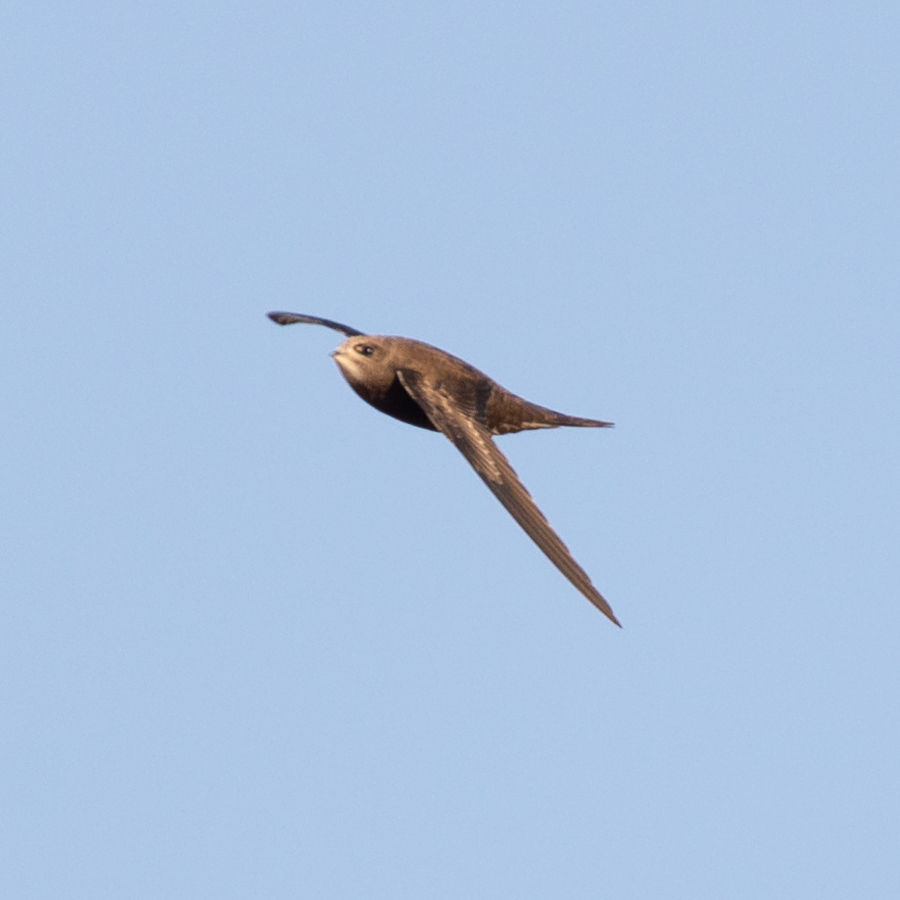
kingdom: Animalia
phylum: Chordata
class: Aves
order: Apodiformes
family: Apodidae
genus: Apus
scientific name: Apus apus
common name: Common swift
